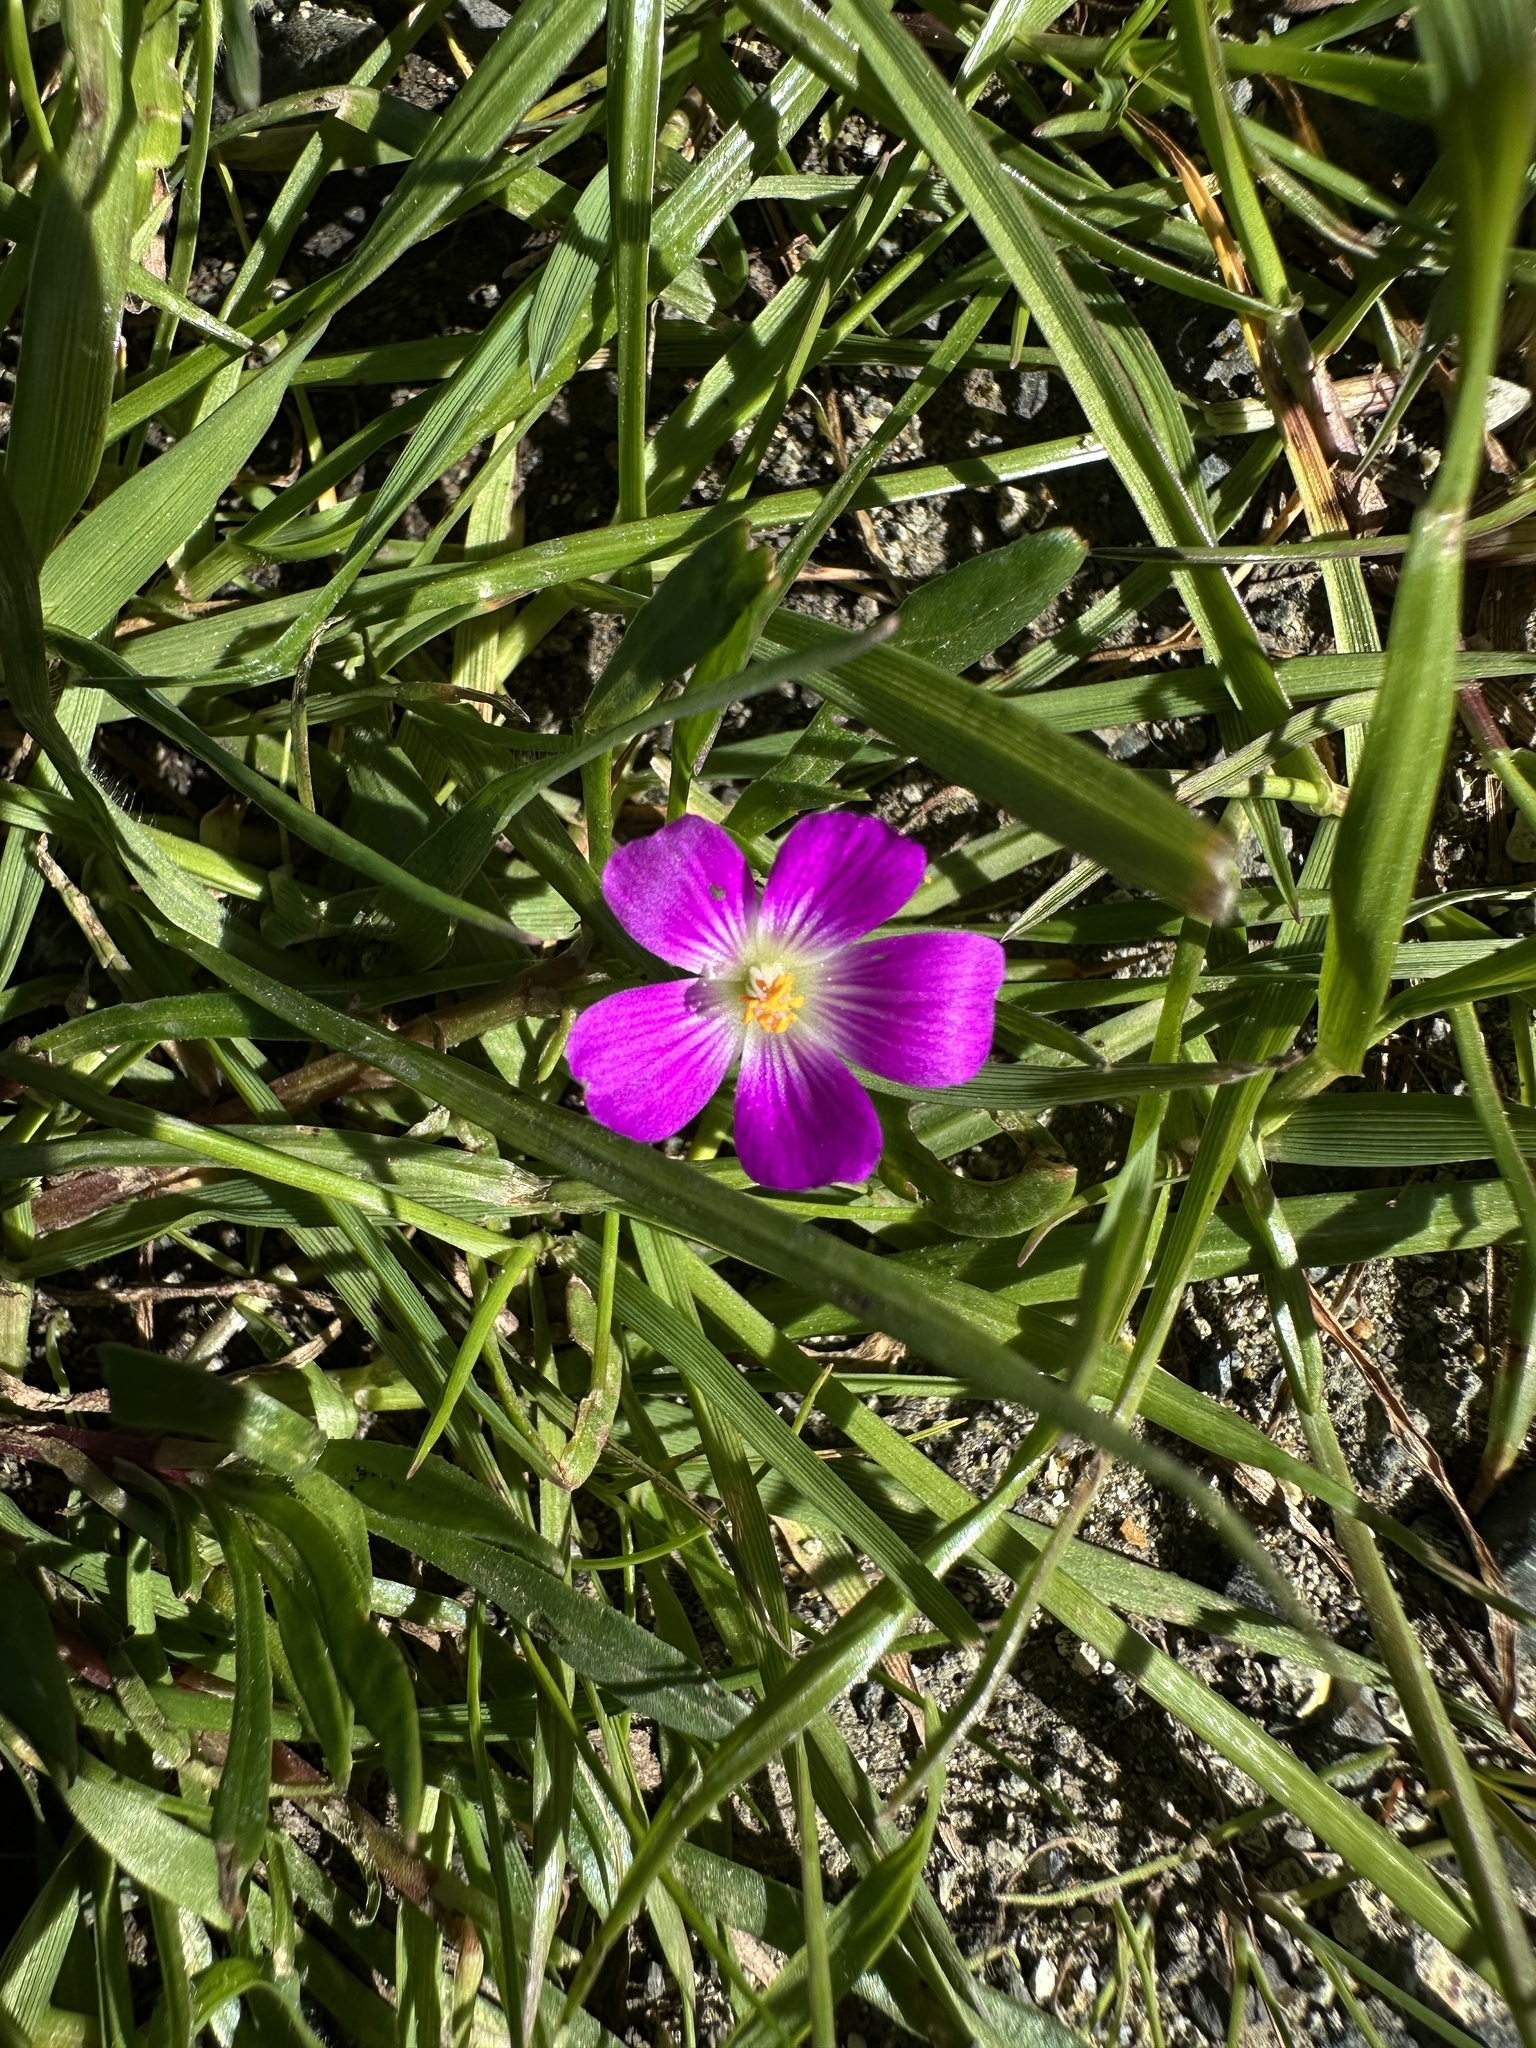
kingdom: Plantae
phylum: Tracheophyta
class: Magnoliopsida
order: Caryophyllales
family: Montiaceae
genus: Calandrinia
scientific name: Calandrinia menziesii
